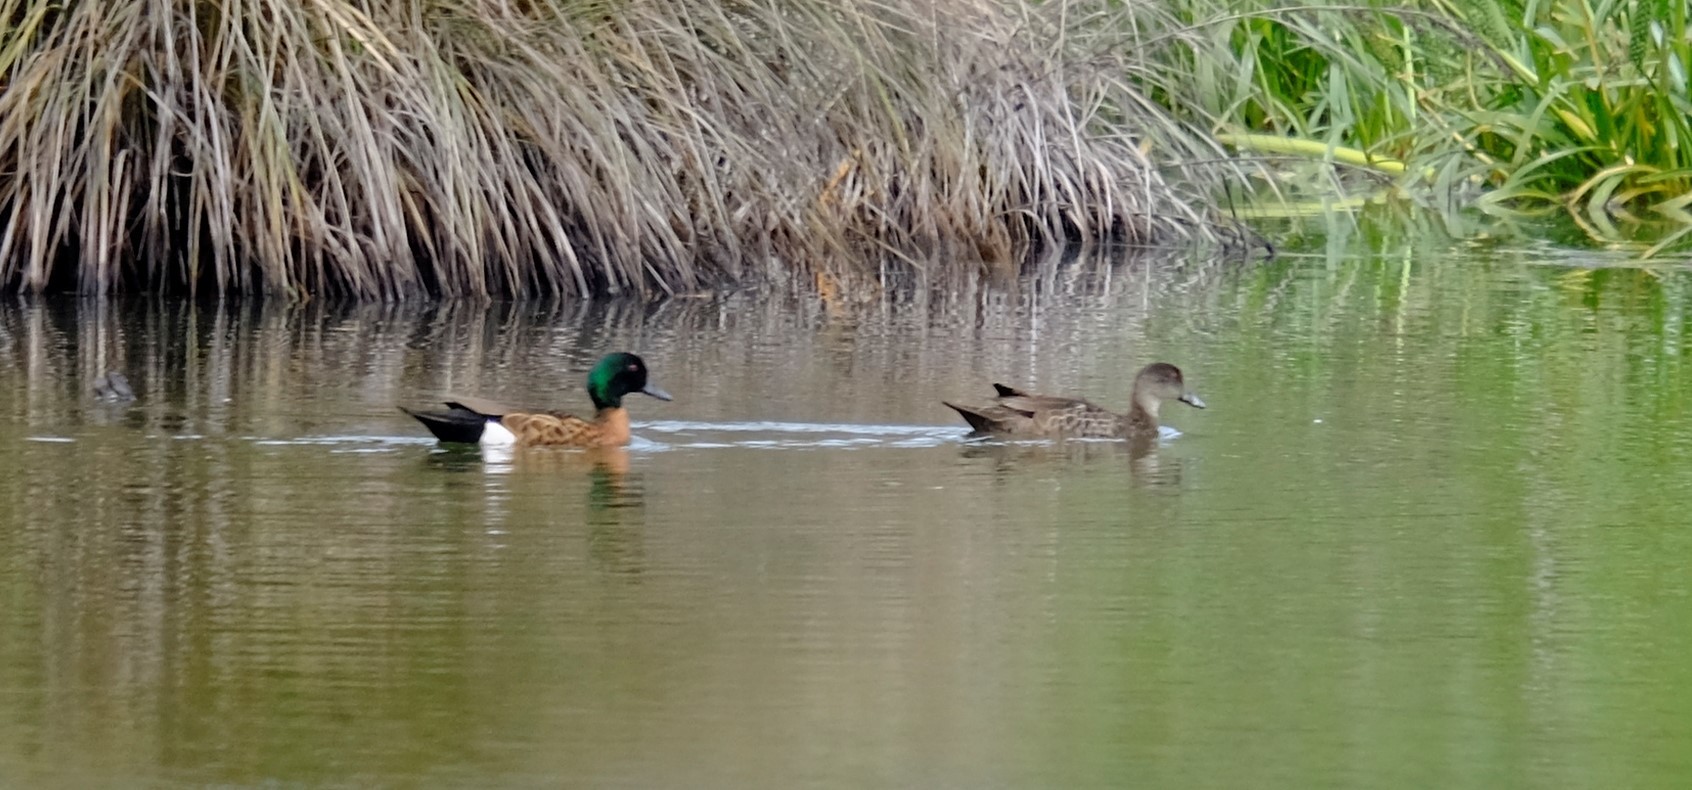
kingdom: Animalia
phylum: Chordata
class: Aves
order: Anseriformes
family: Anatidae
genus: Anas
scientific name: Anas castanea
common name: Chestnut teal
